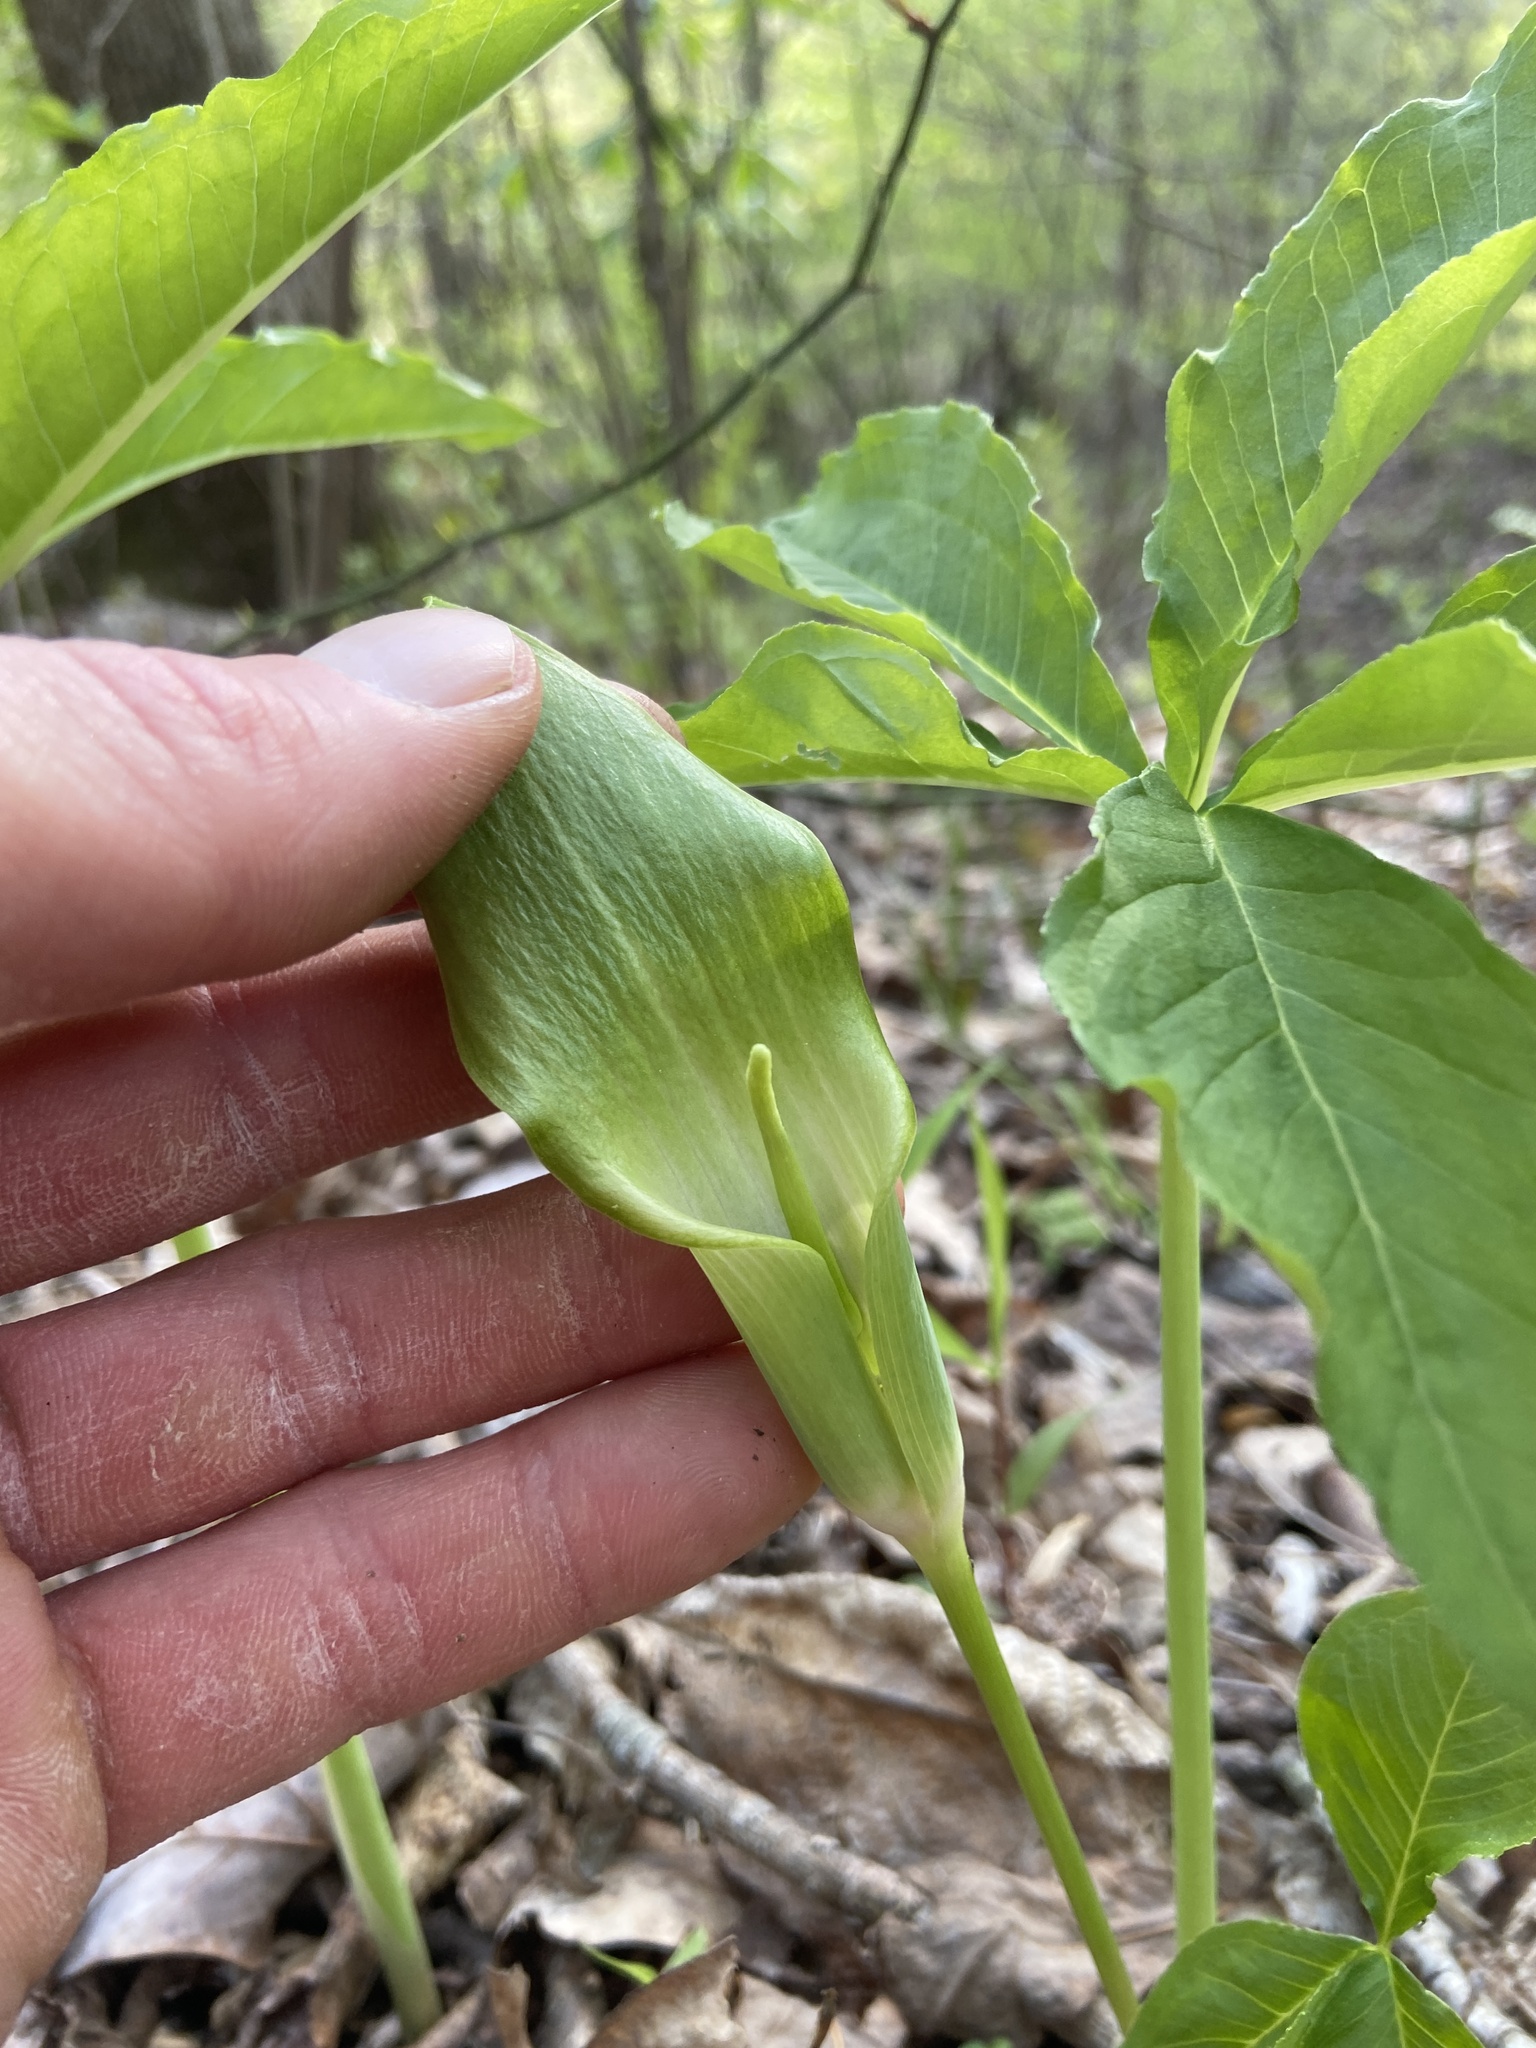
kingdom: Plantae
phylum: Tracheophyta
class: Liliopsida
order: Alismatales
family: Araceae
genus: Arisaema
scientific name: Arisaema quinatum
